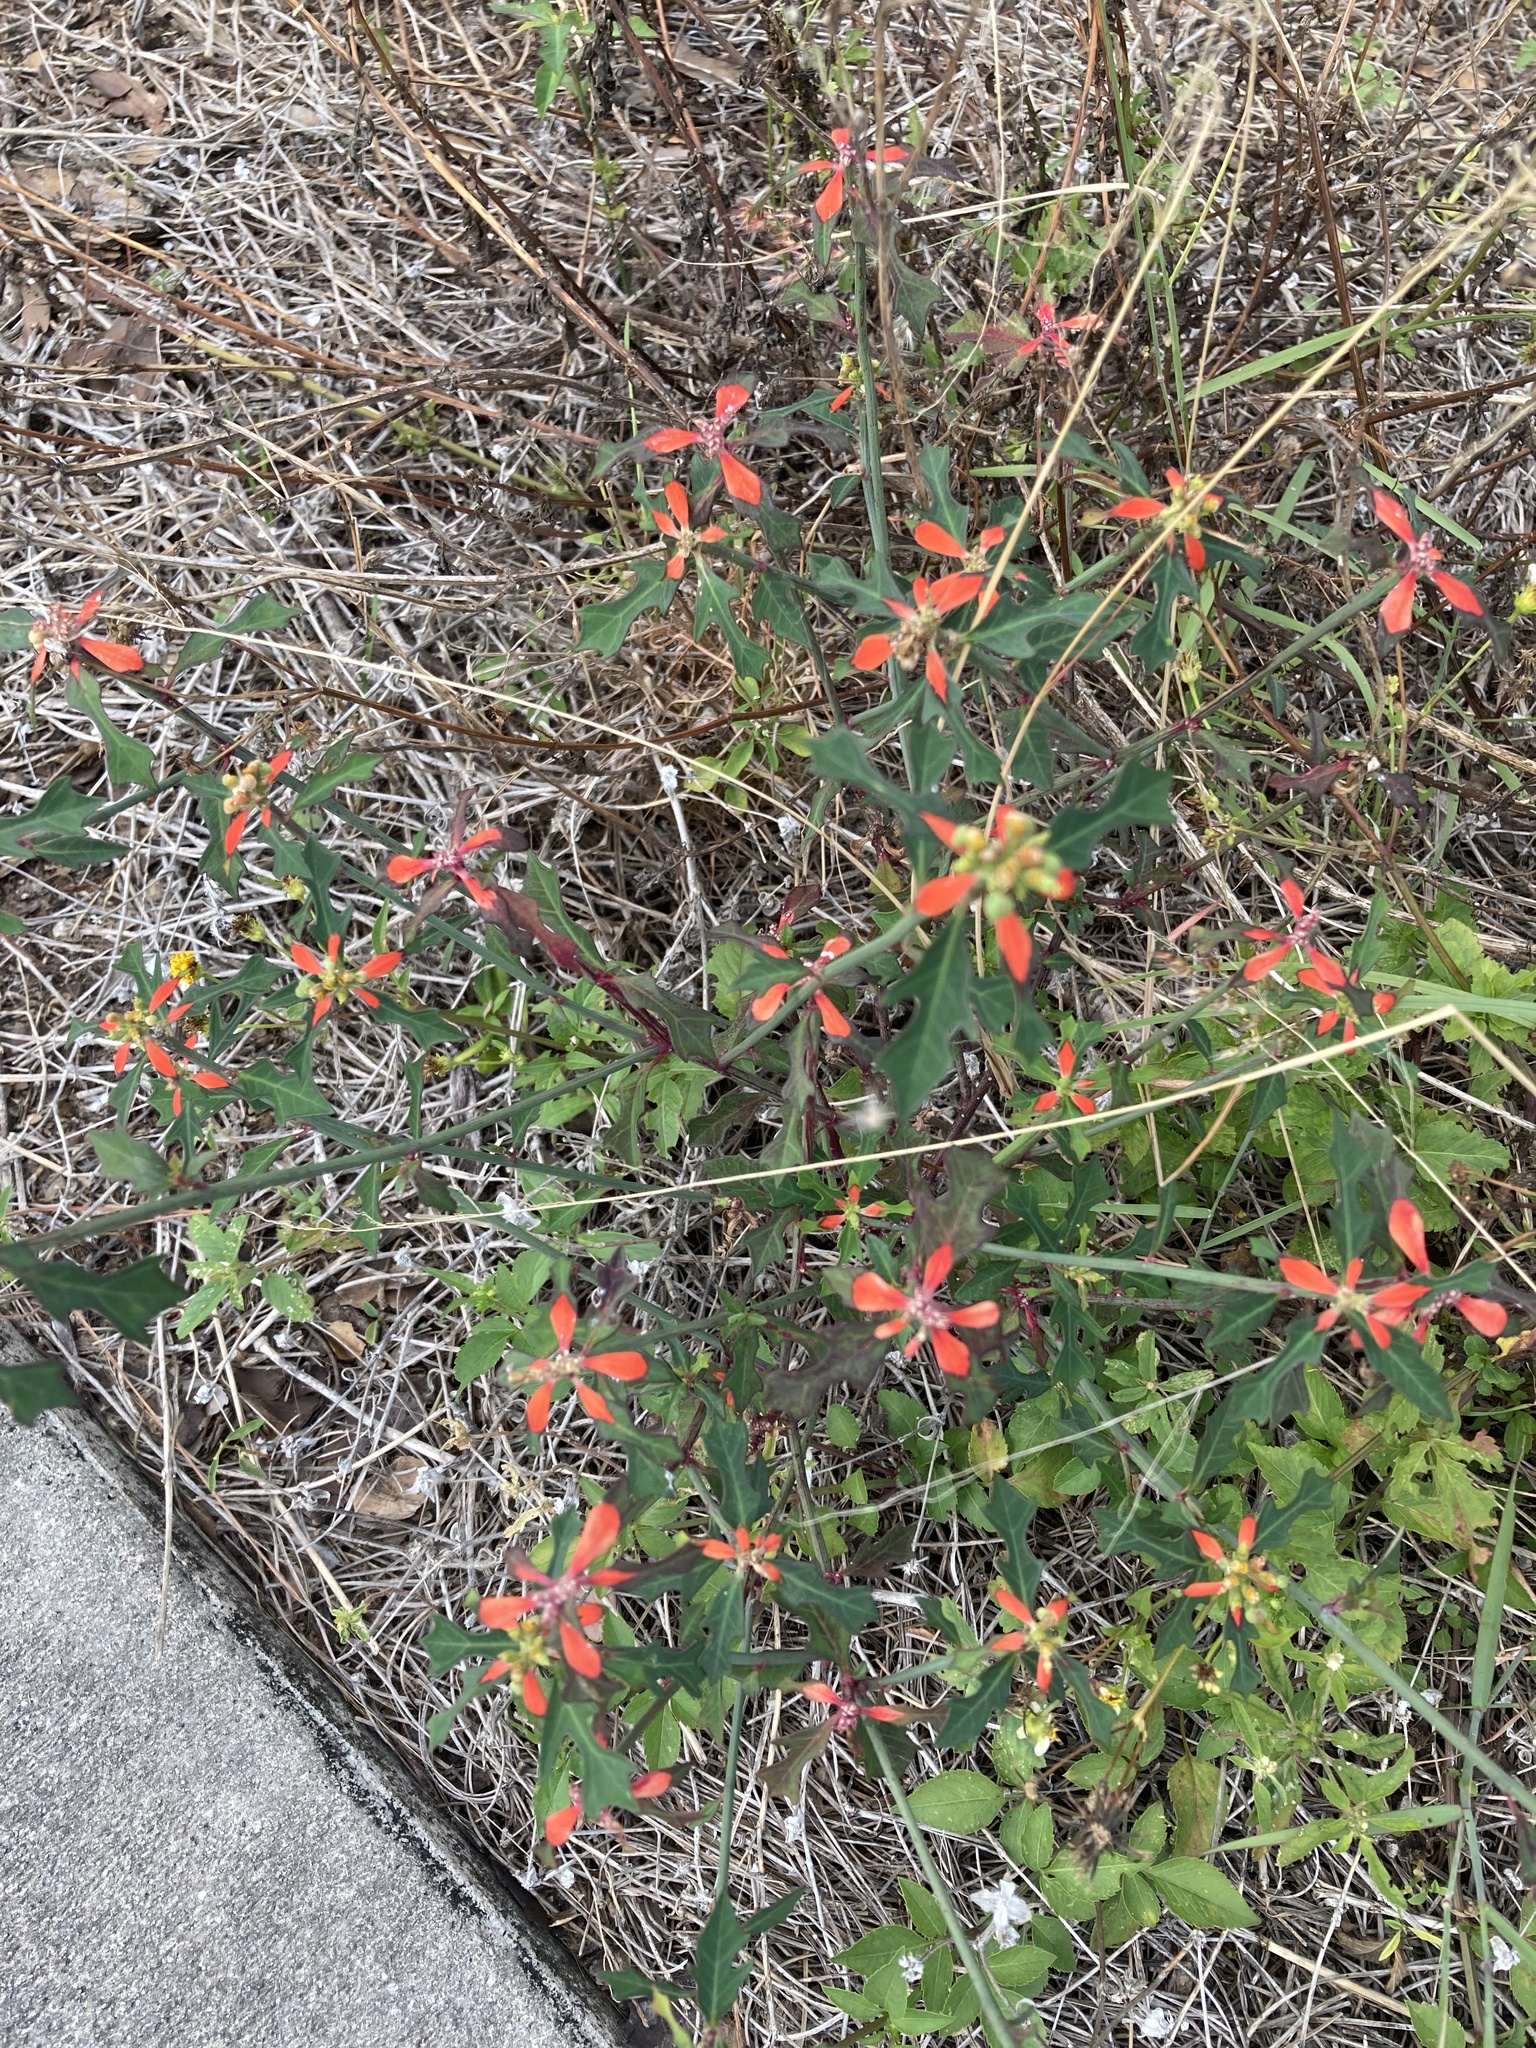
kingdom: Plantae
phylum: Tracheophyta
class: Magnoliopsida
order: Malpighiales
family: Euphorbiaceae
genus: Euphorbia
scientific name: Euphorbia heterophylla
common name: Mexican fireplant
